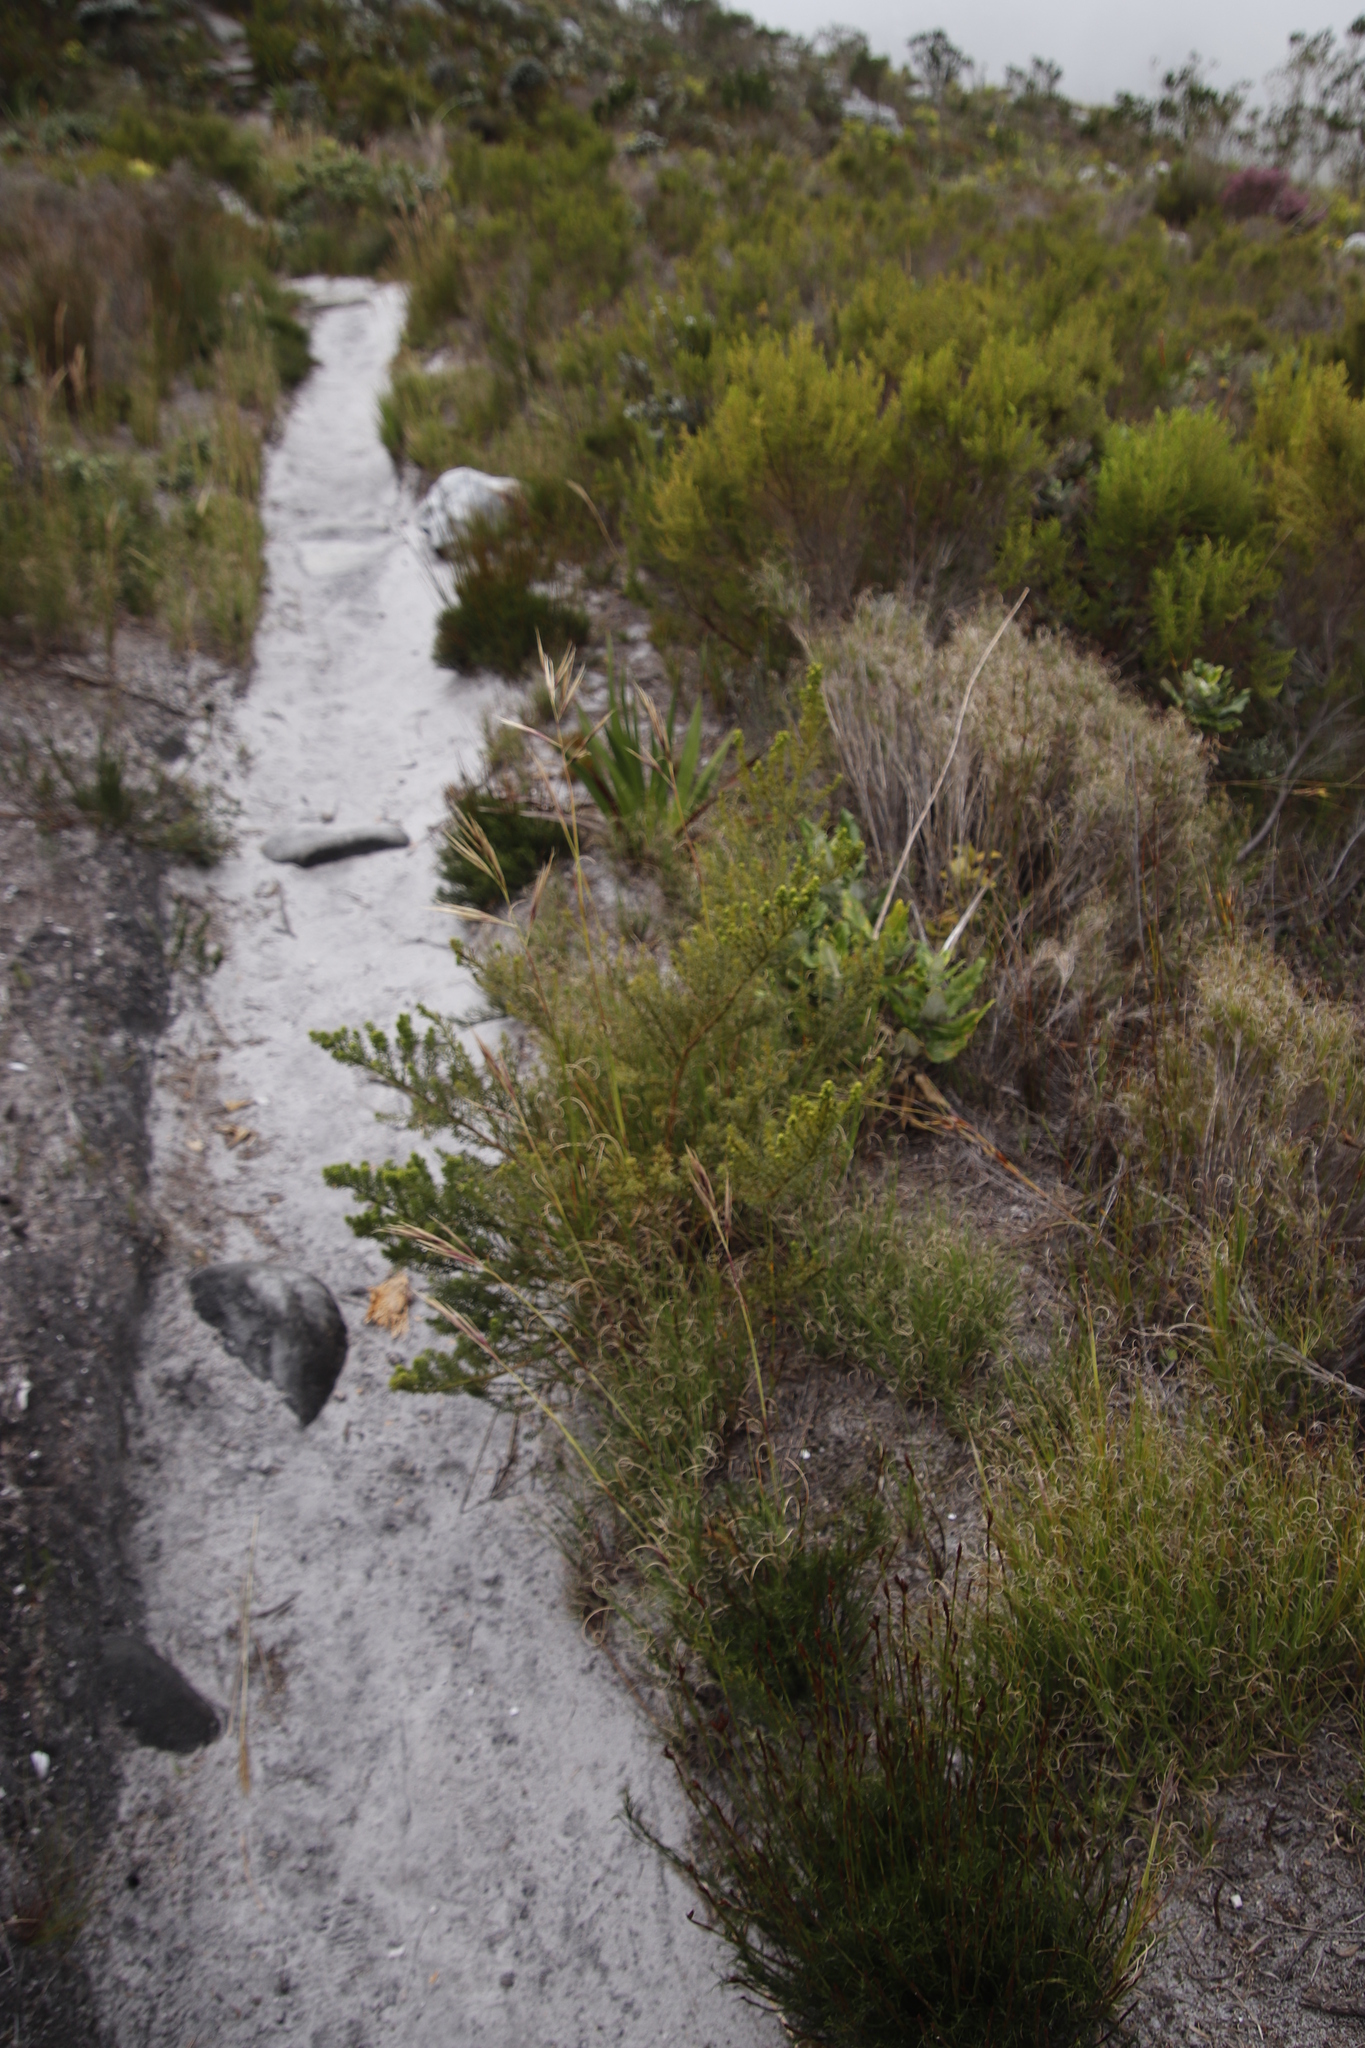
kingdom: Plantae
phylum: Tracheophyta
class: Magnoliopsida
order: Fabales
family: Fabaceae
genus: Psoralea
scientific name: Psoralea aculeata
